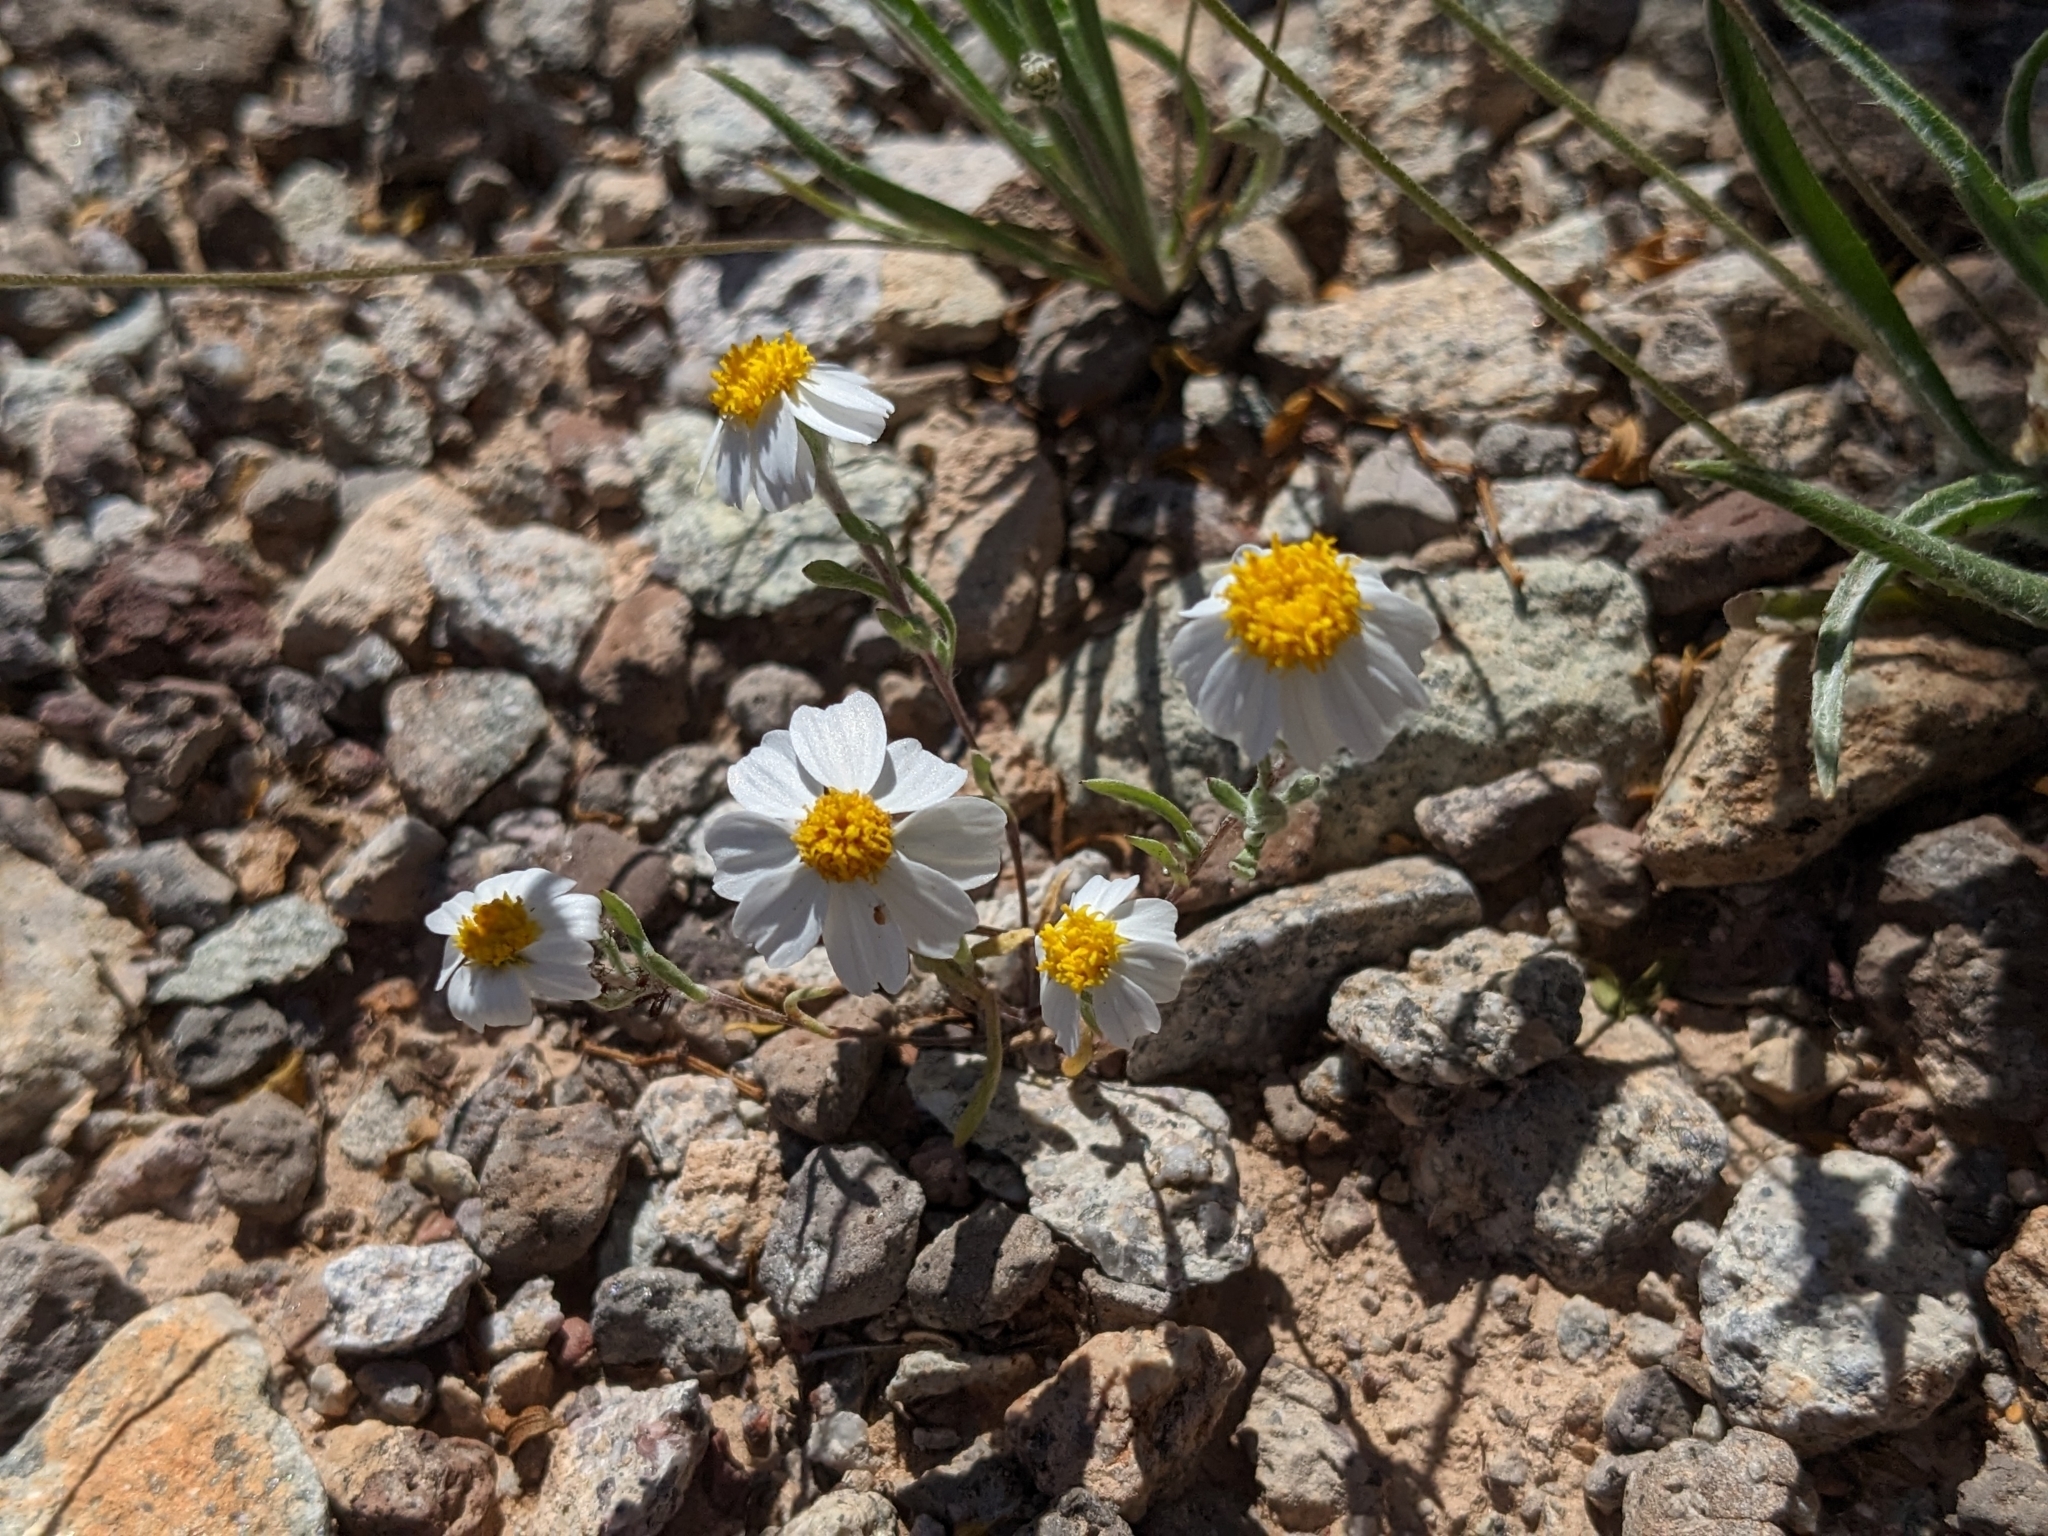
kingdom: Plantae
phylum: Tracheophyta
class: Magnoliopsida
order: Asterales
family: Asteraceae
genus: Eriophyllum
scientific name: Eriophyllum lanosum
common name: White easter-bonnets
